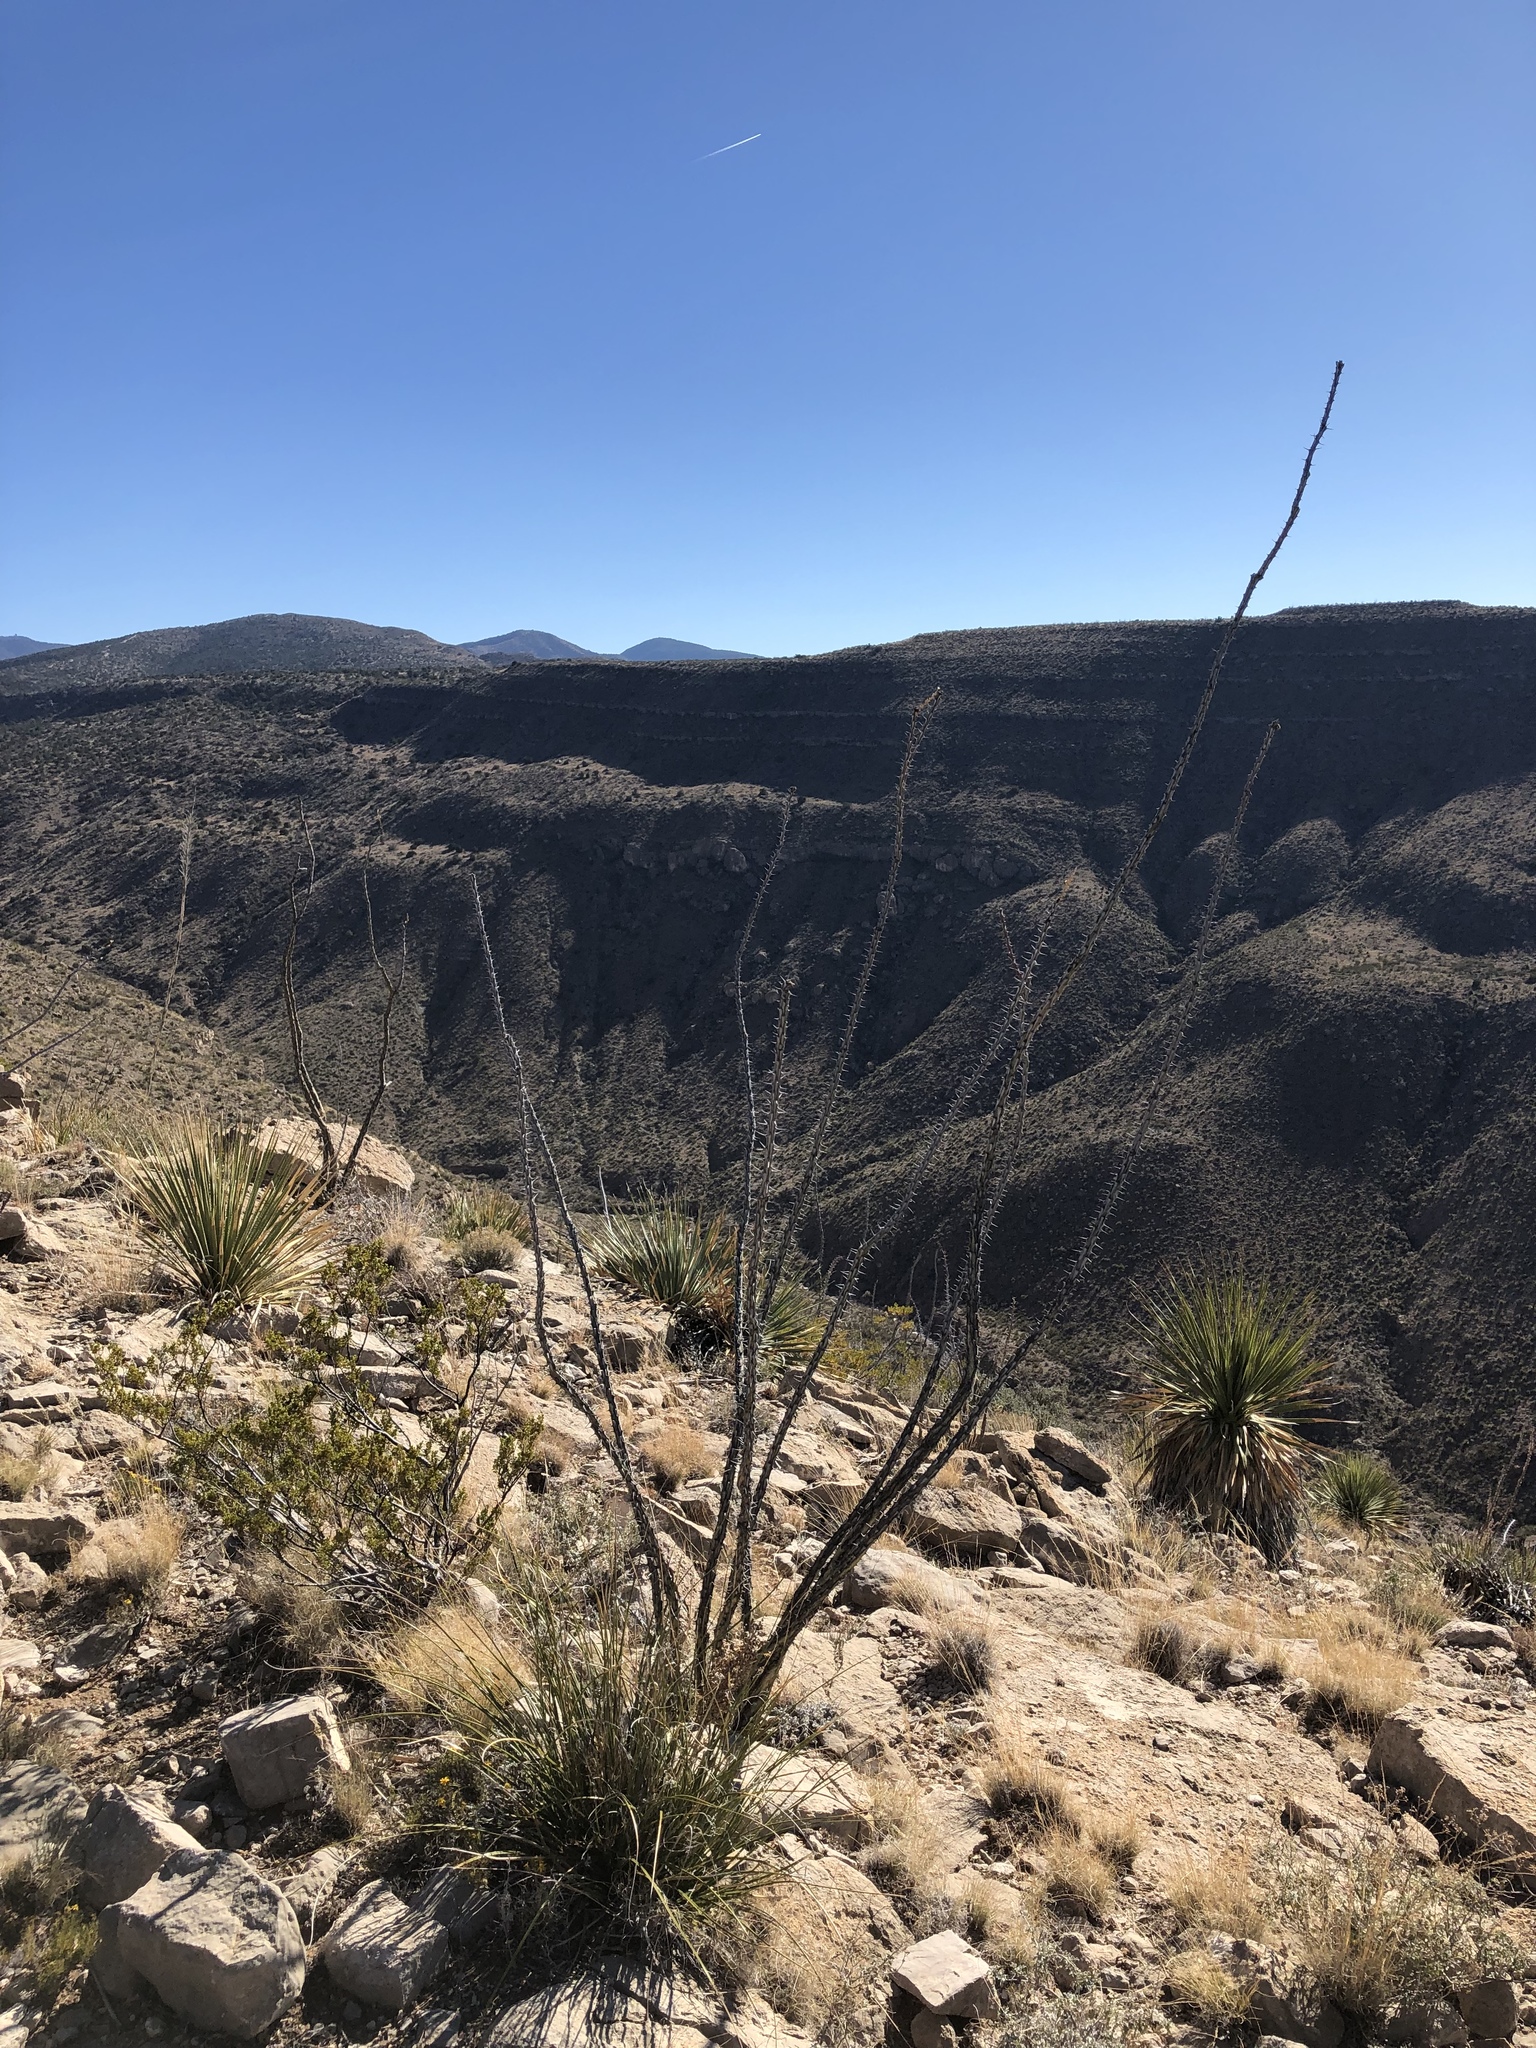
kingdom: Plantae
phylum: Tracheophyta
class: Magnoliopsida
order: Ericales
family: Fouquieriaceae
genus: Fouquieria
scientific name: Fouquieria splendens
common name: Vine-cactus
